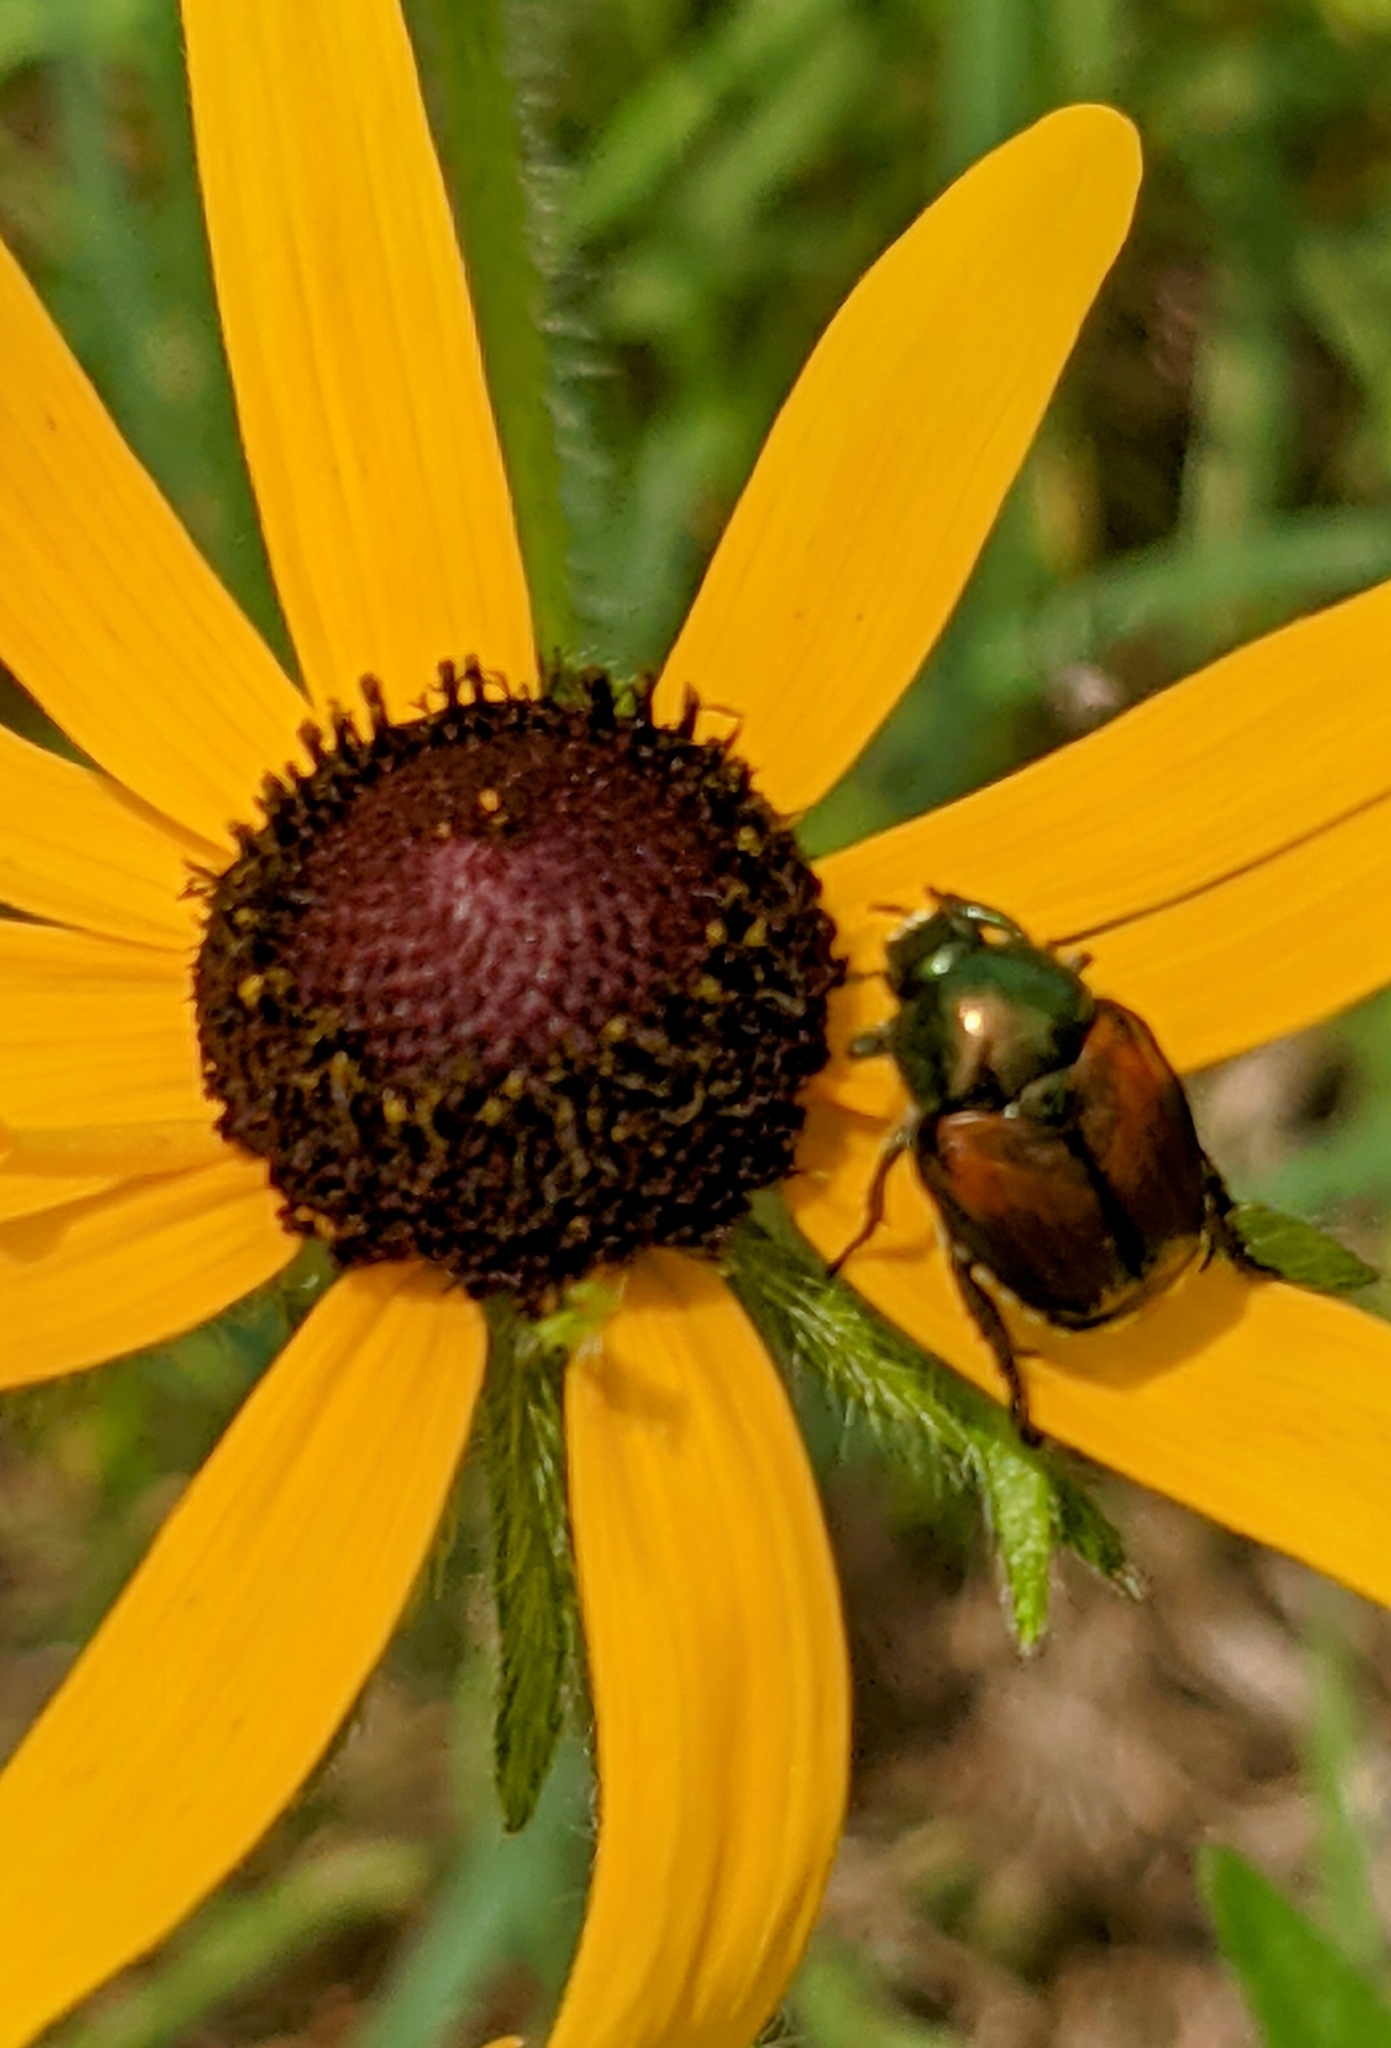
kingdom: Animalia
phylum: Arthropoda
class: Insecta
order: Coleoptera
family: Scarabaeidae
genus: Popillia
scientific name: Popillia japonica
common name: Japanese beetle
